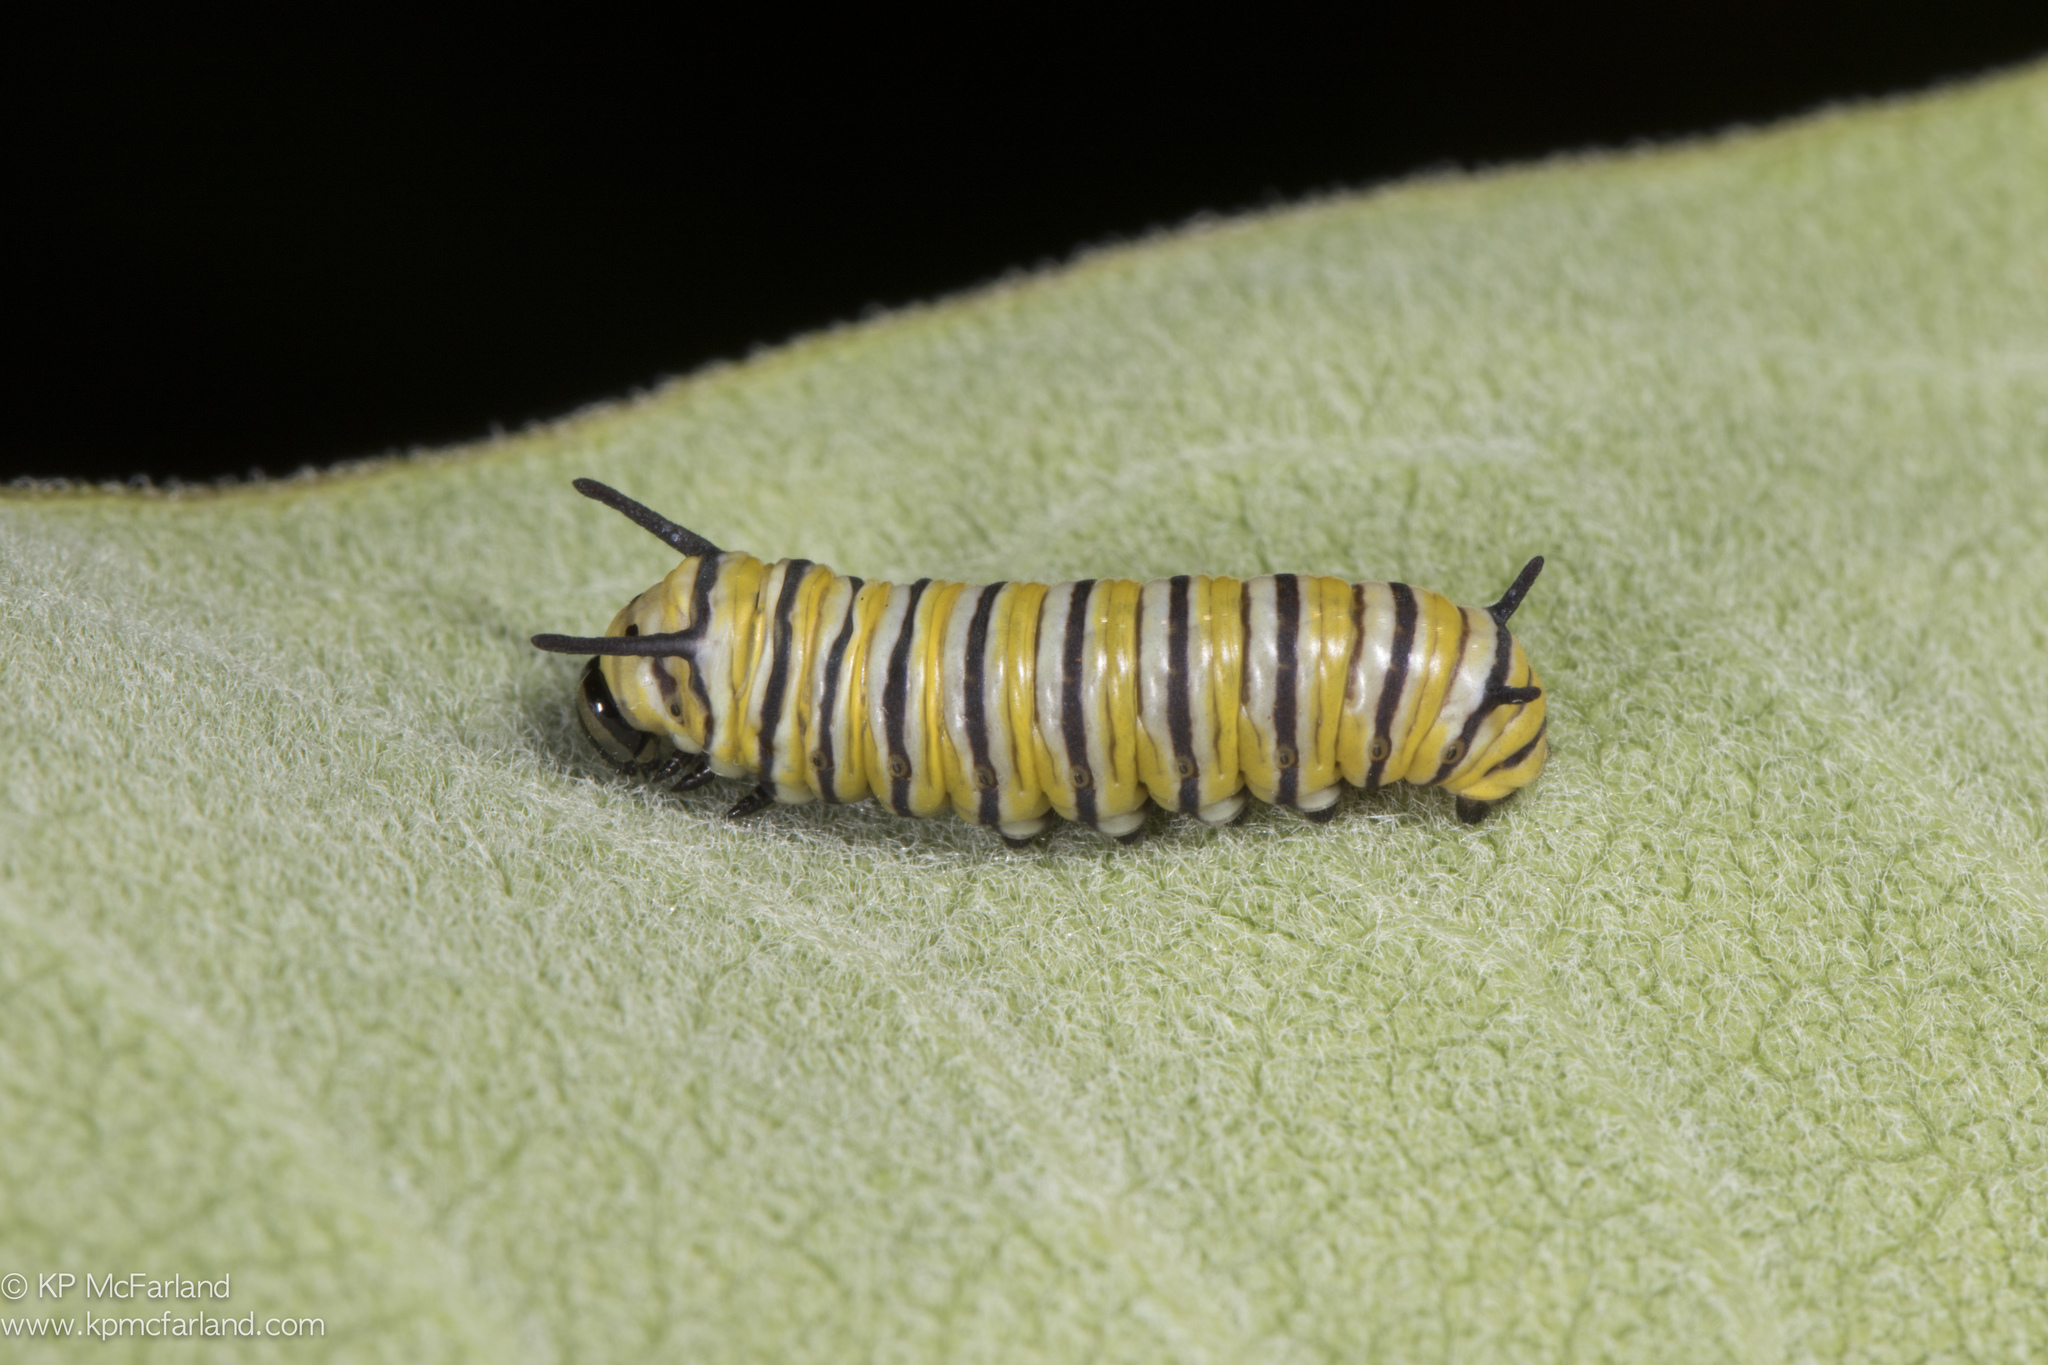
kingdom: Animalia
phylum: Arthropoda
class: Insecta
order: Lepidoptera
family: Nymphalidae
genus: Danaus
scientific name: Danaus plexippus
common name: Monarch
